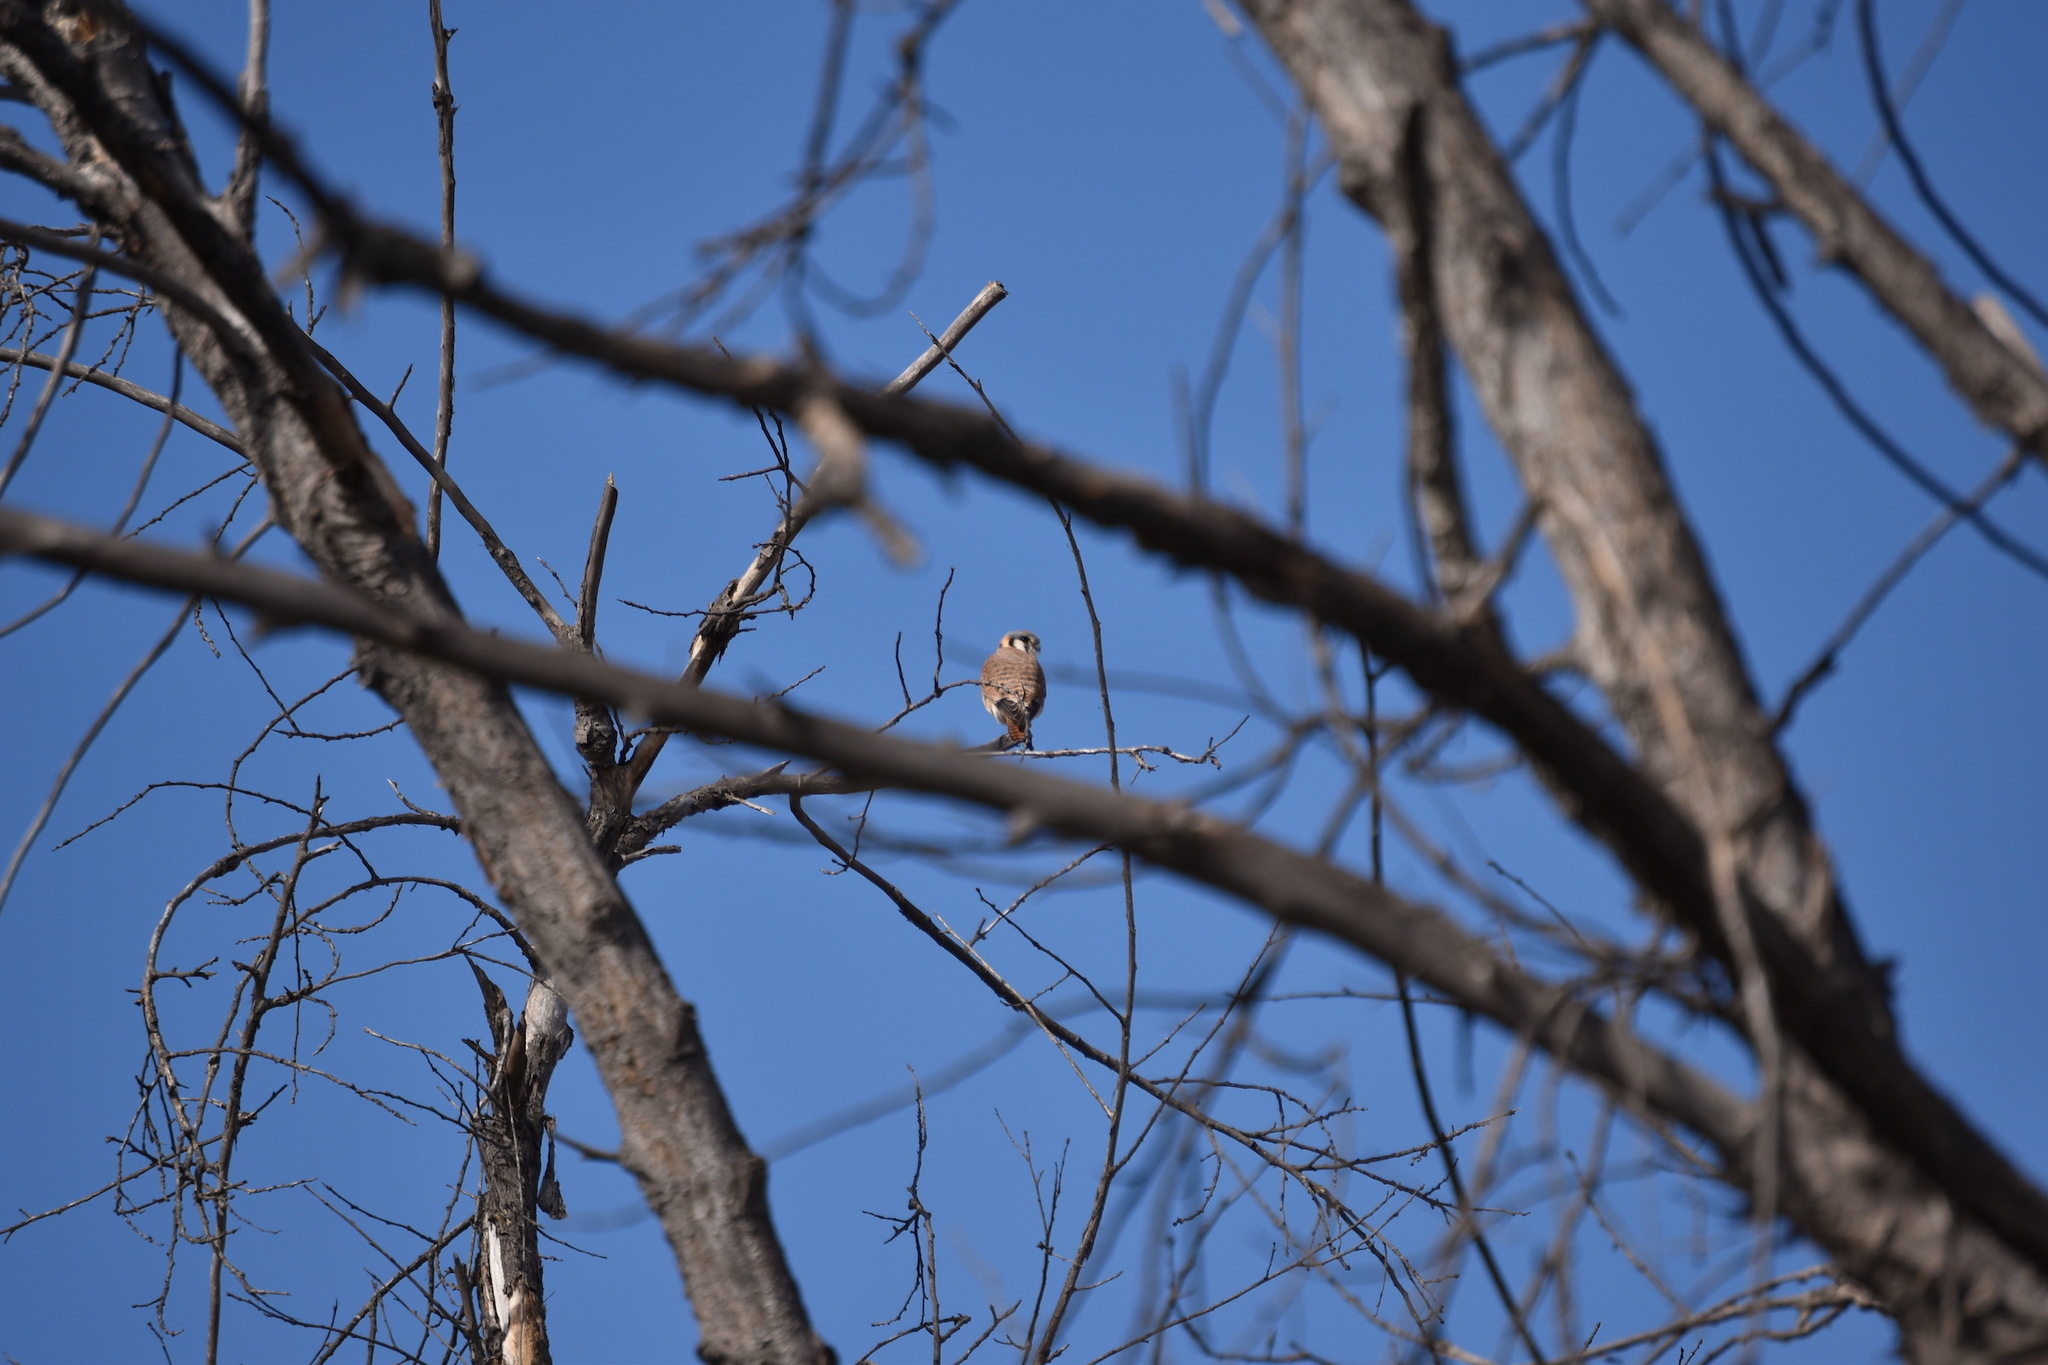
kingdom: Animalia
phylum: Chordata
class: Aves
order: Falconiformes
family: Falconidae
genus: Falco
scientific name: Falco sparverius
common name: American kestrel
